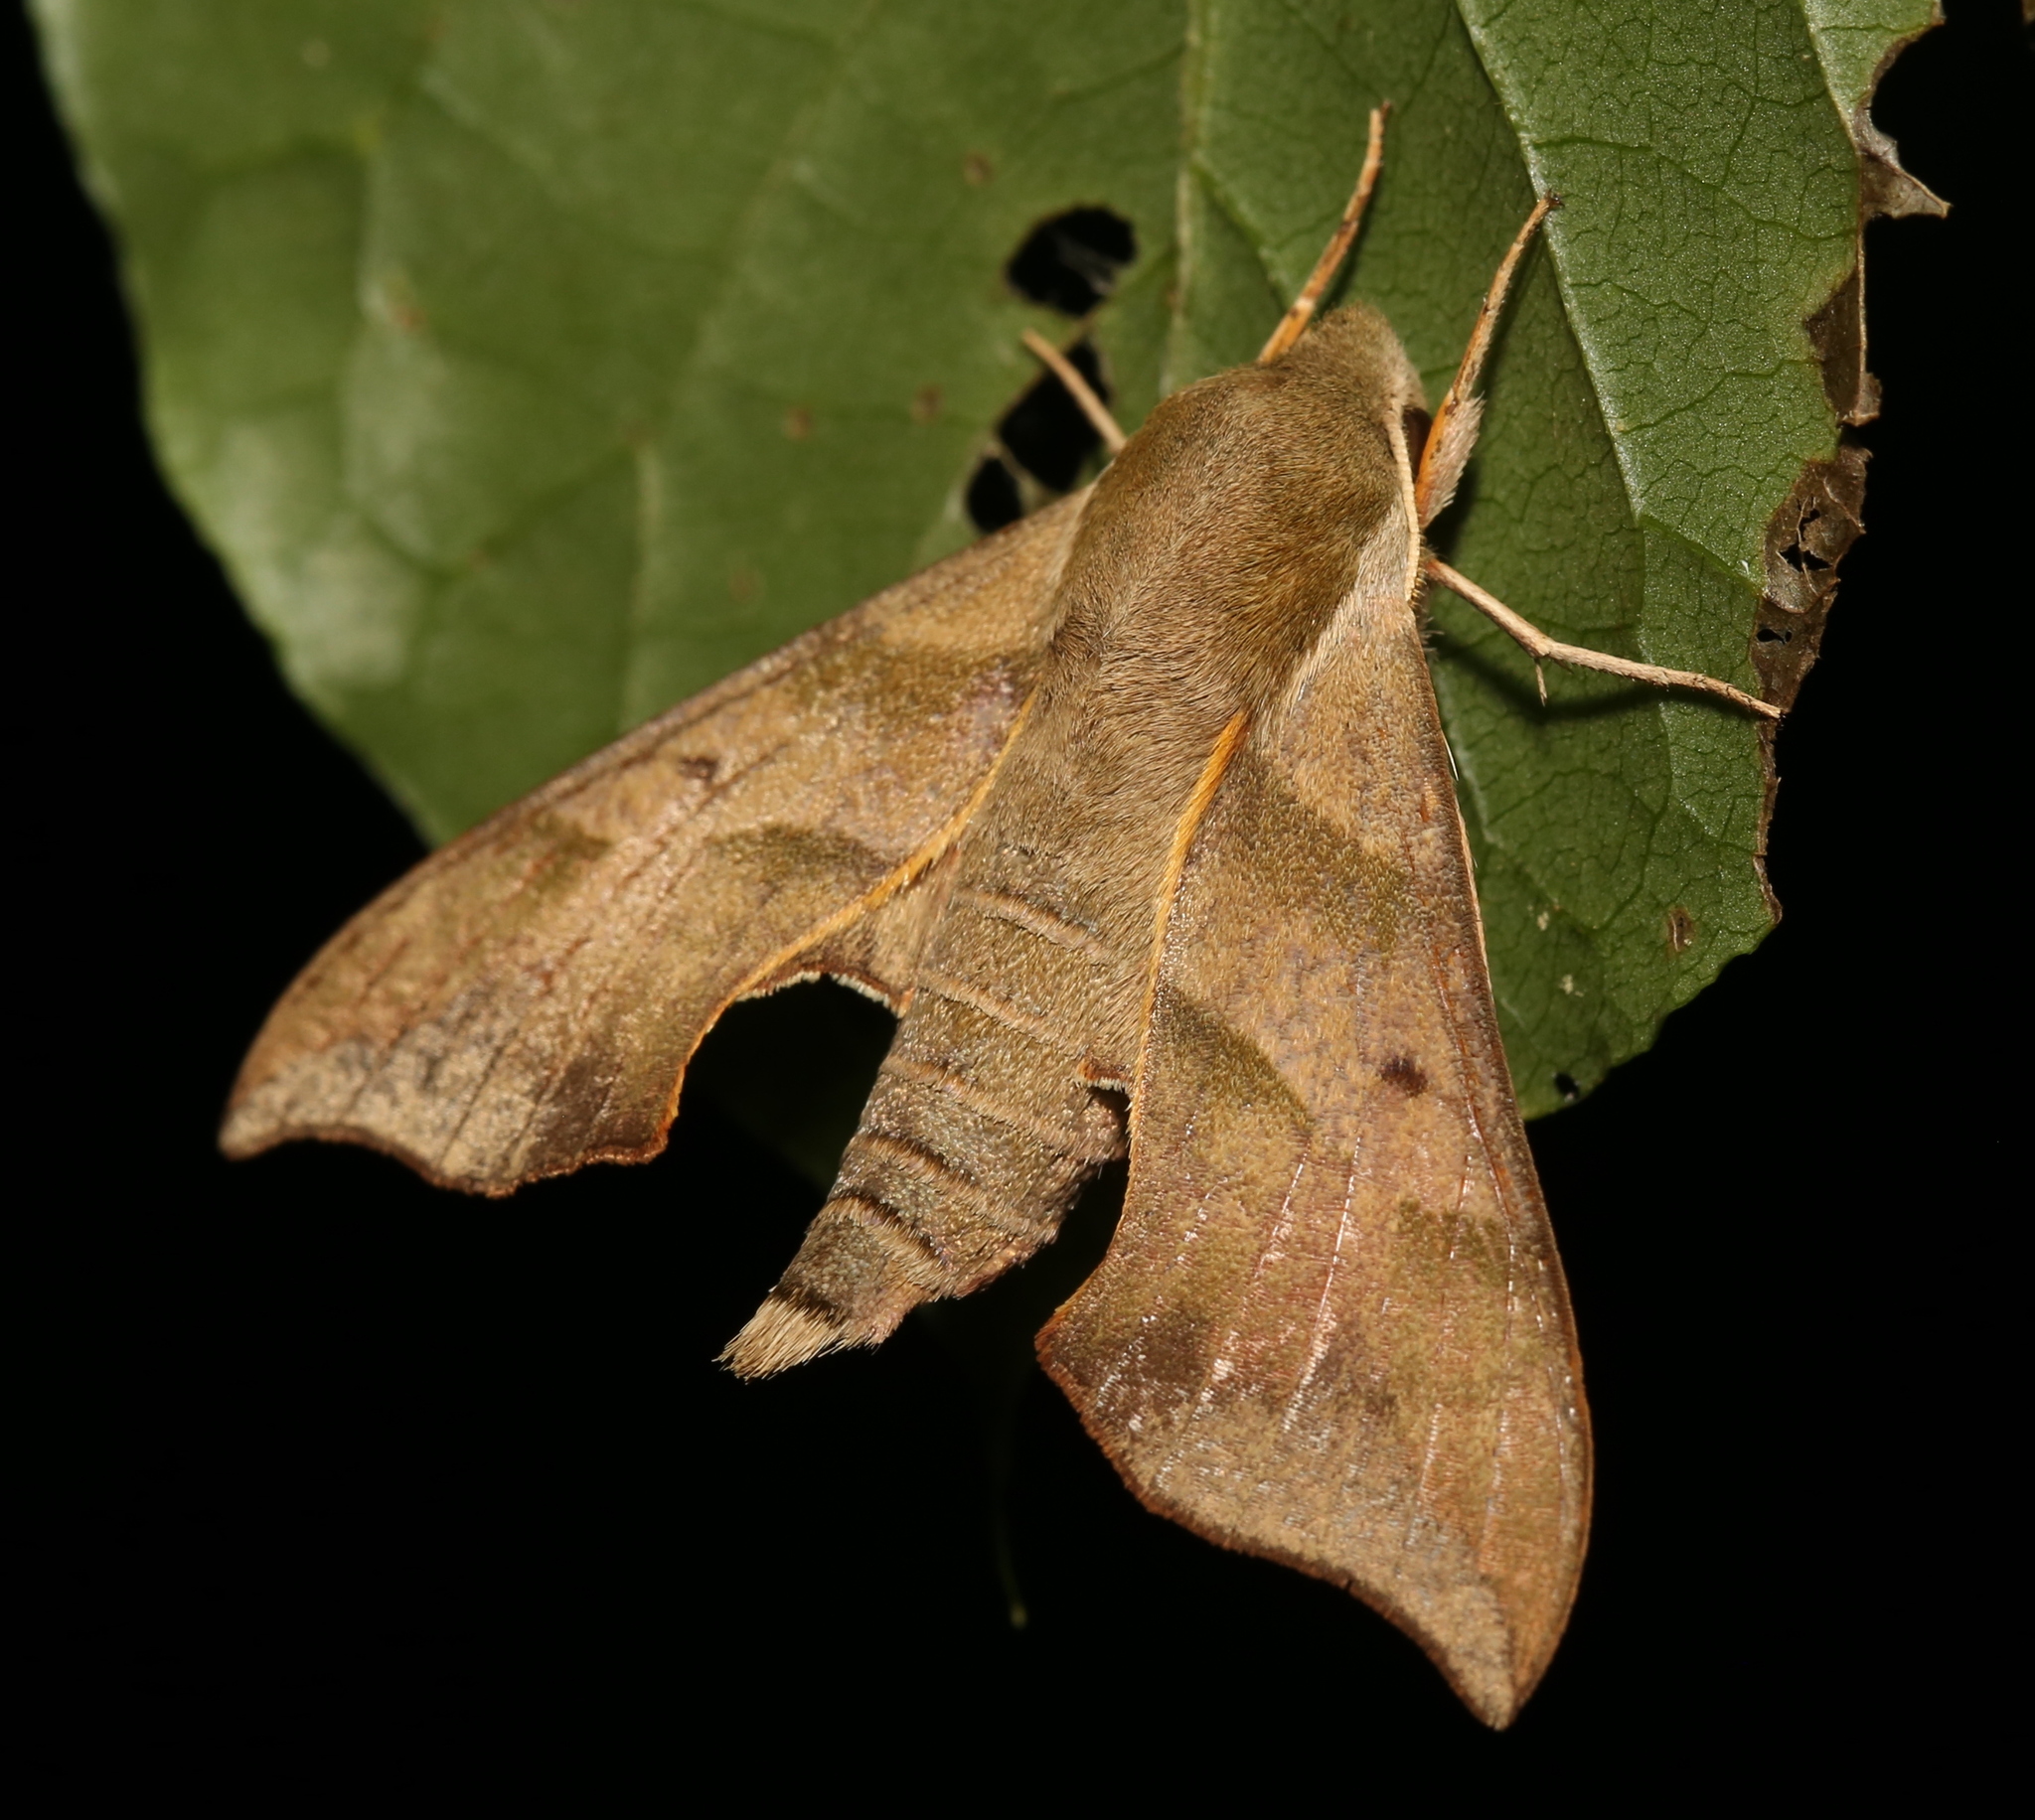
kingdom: Animalia
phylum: Arthropoda
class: Insecta
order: Lepidoptera
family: Sphingidae
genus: Darapsa
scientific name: Darapsa myron
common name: Hog sphinx
